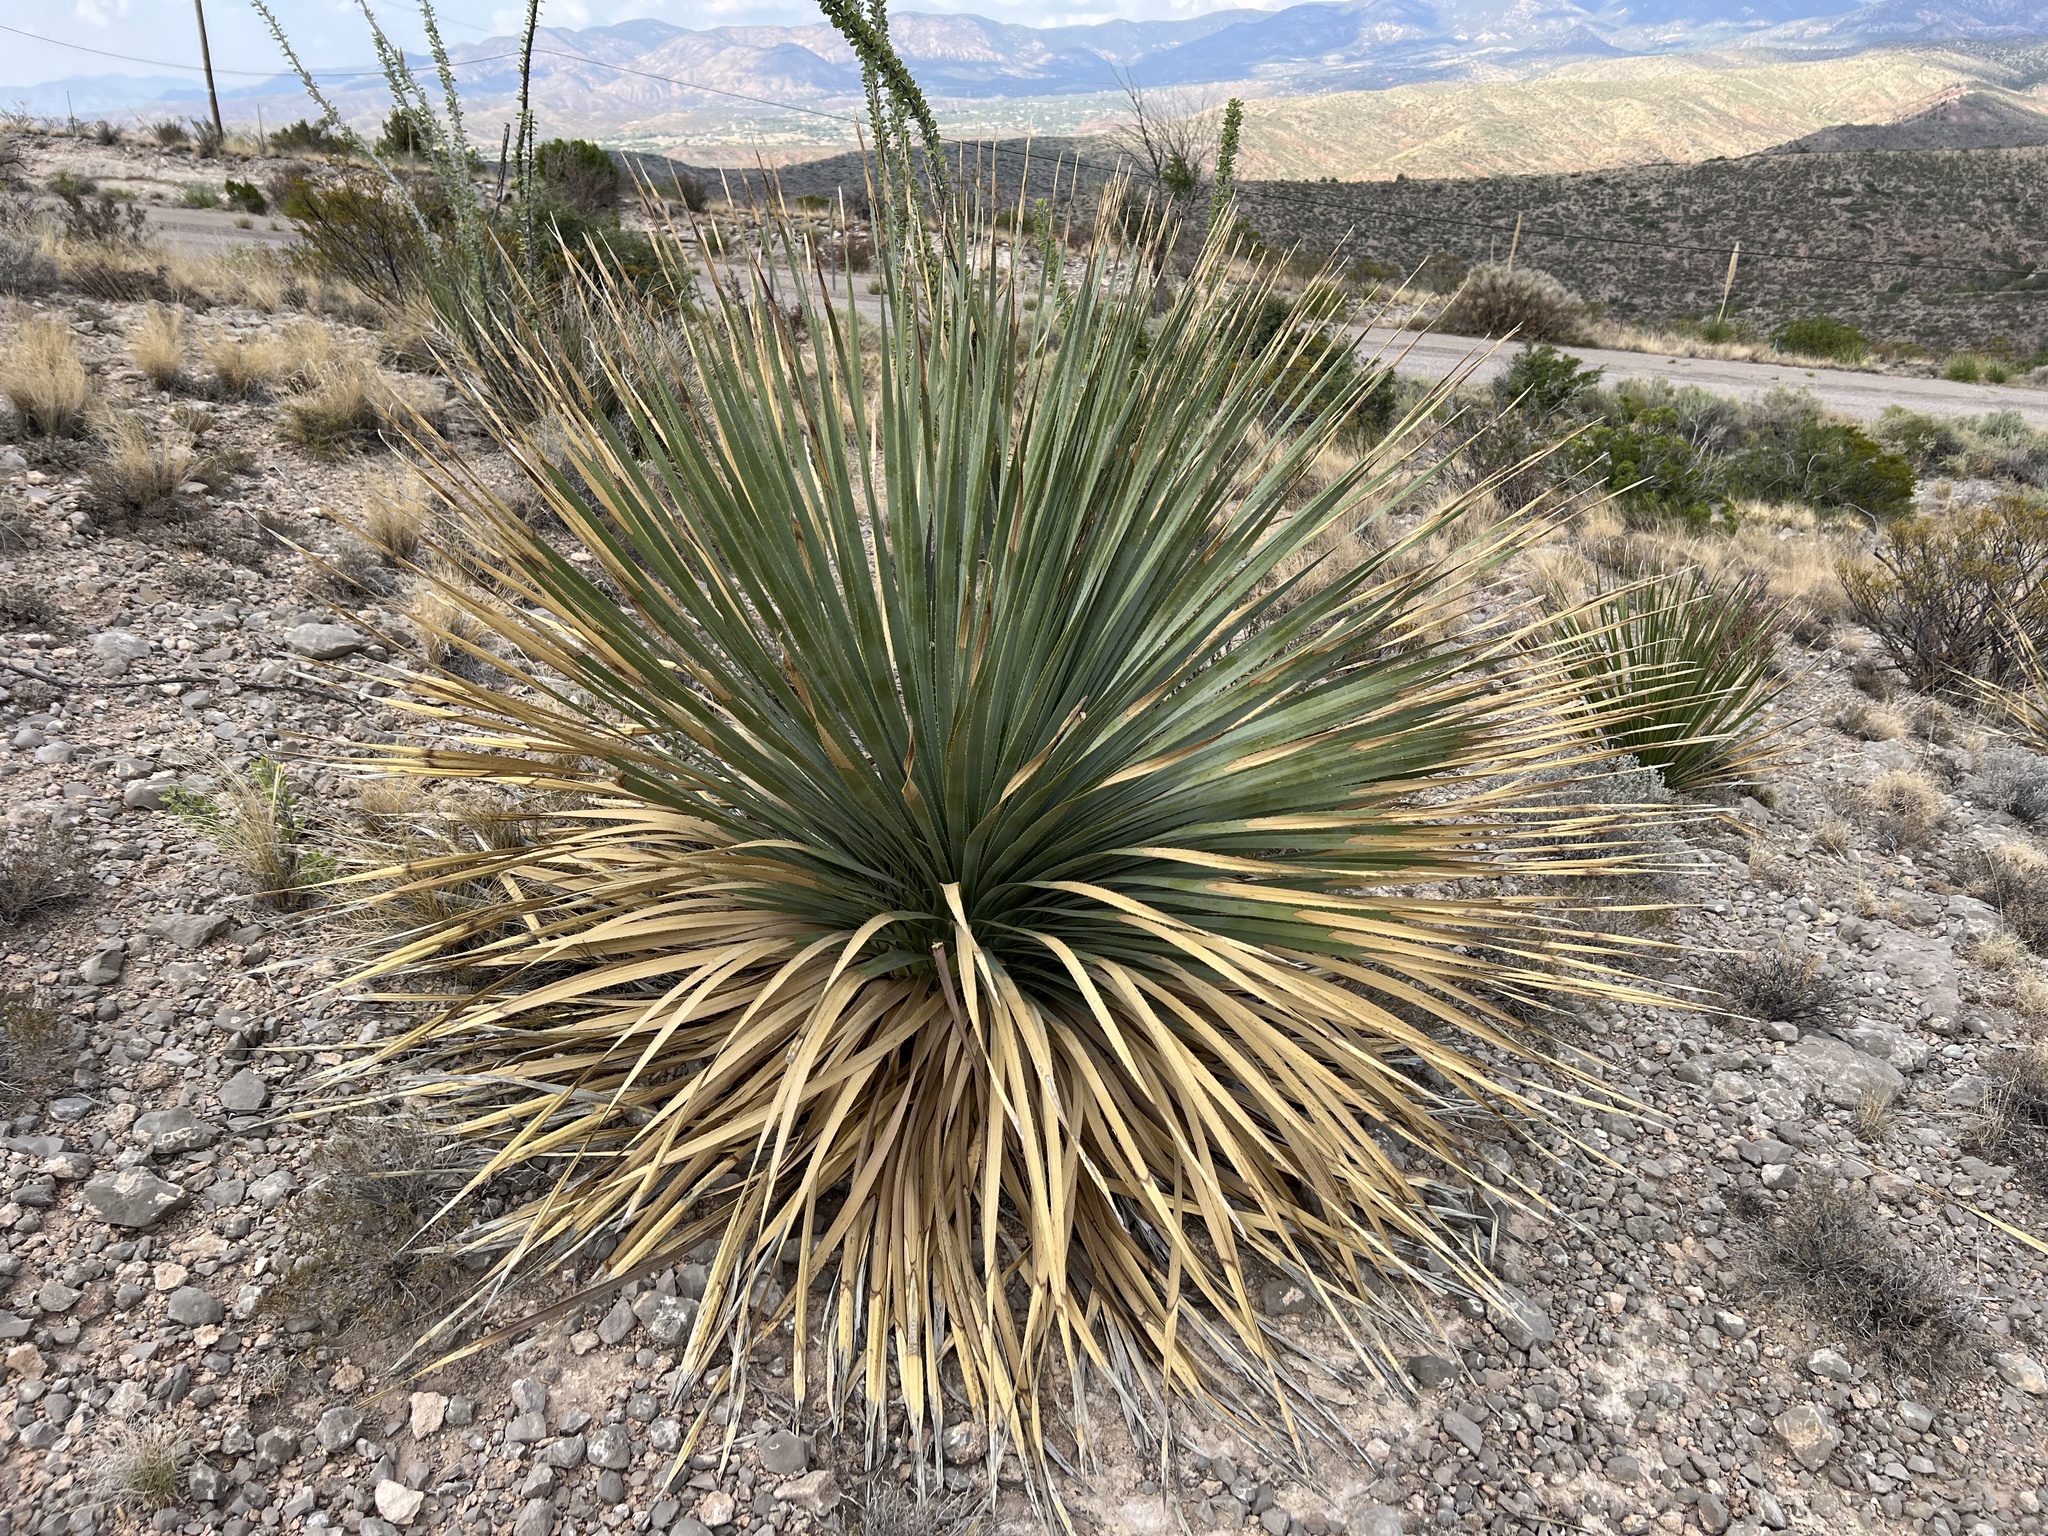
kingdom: Plantae
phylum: Tracheophyta
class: Liliopsida
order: Asparagales
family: Asparagaceae
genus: Dasylirion
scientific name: Dasylirion wheeleri
